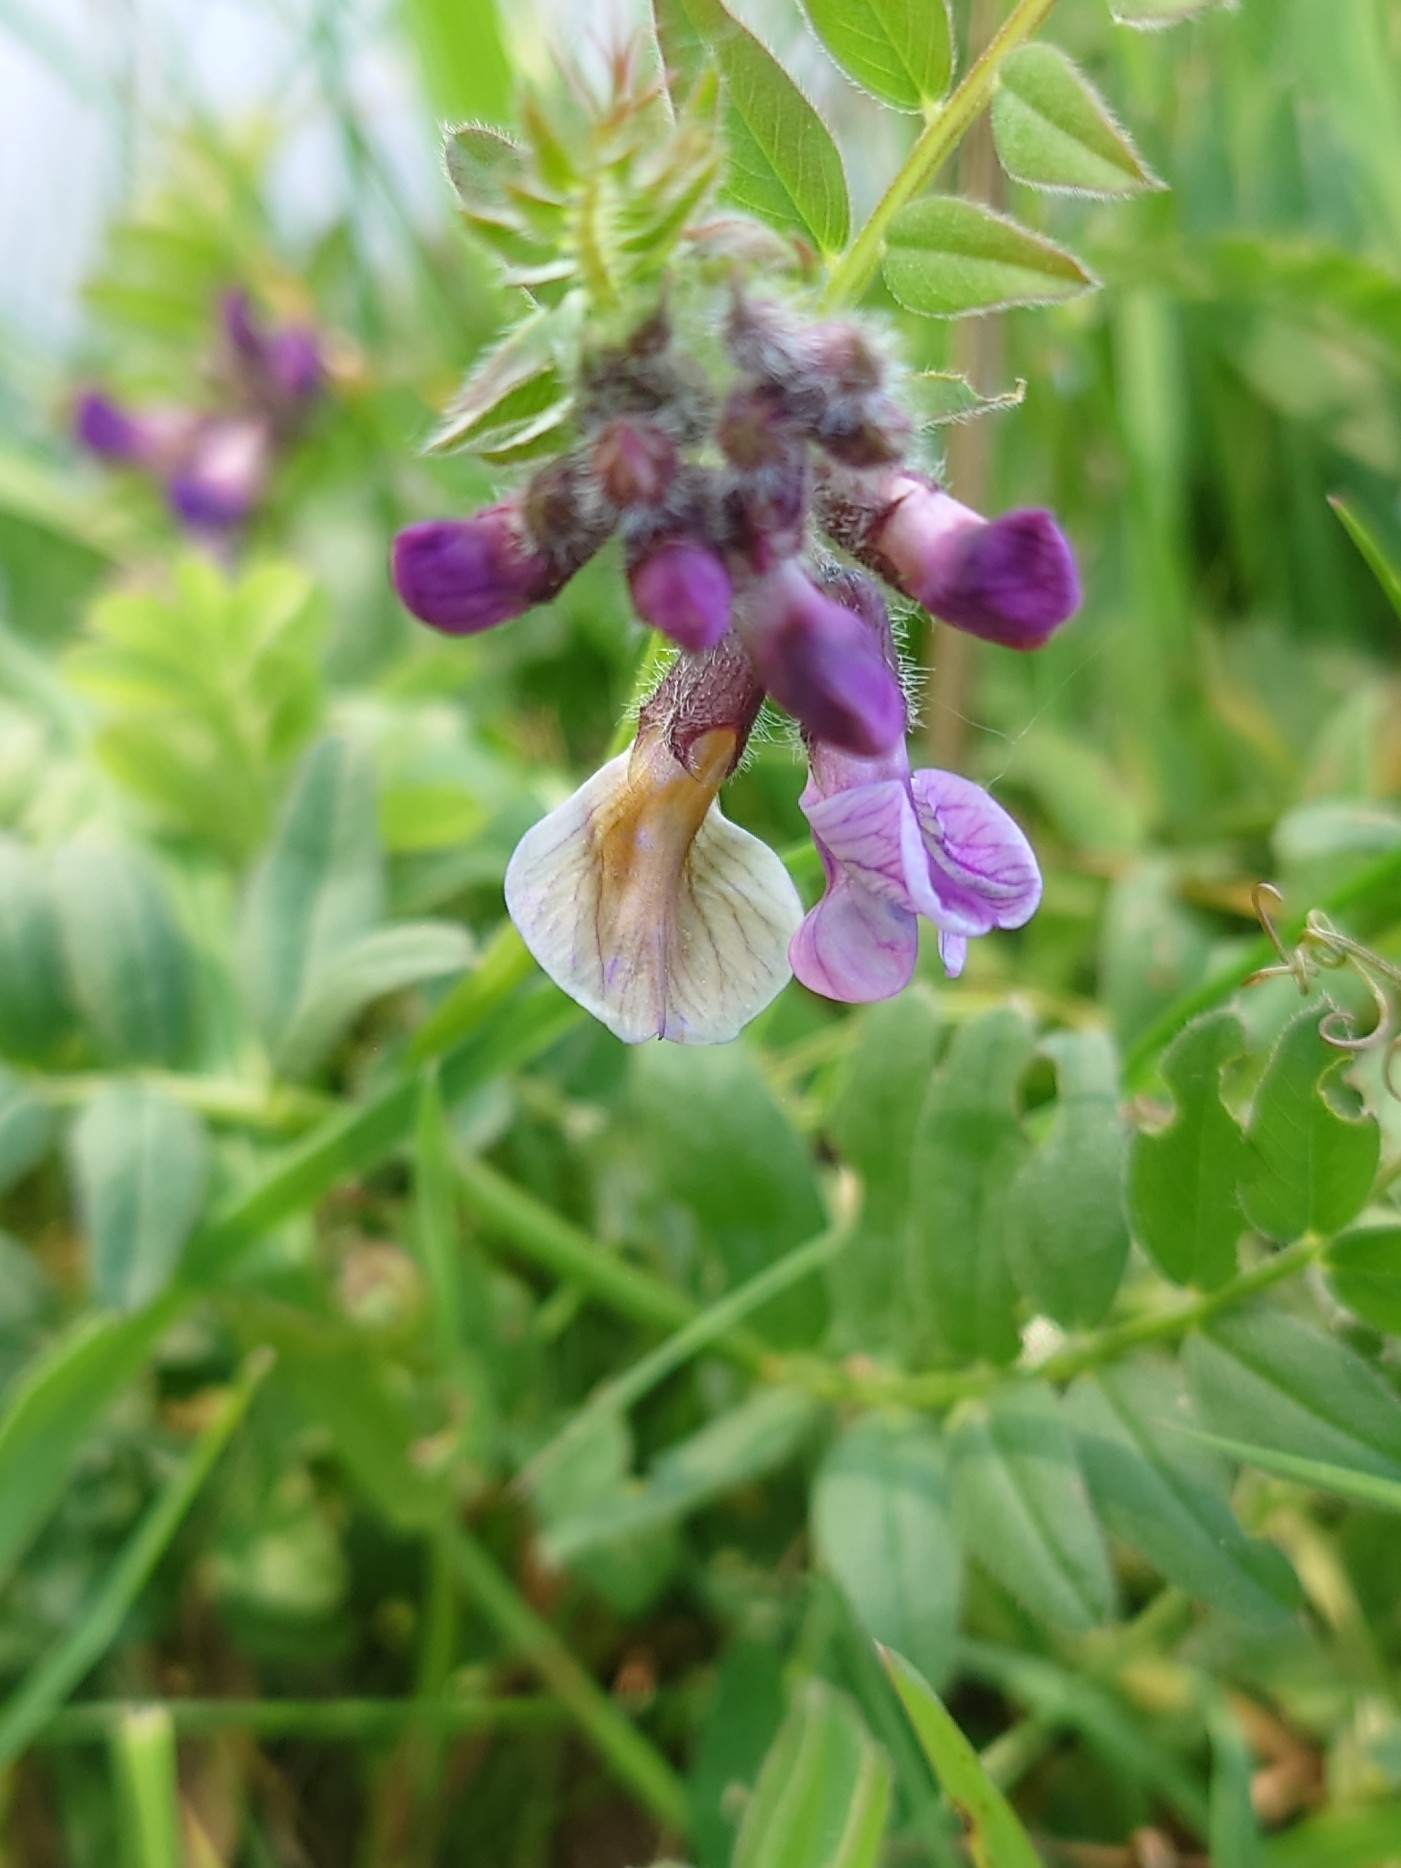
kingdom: Plantae
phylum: Tracheophyta
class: Magnoliopsida
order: Fabales
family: Fabaceae
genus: Vicia
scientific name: Vicia sepium
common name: Bush vetch
